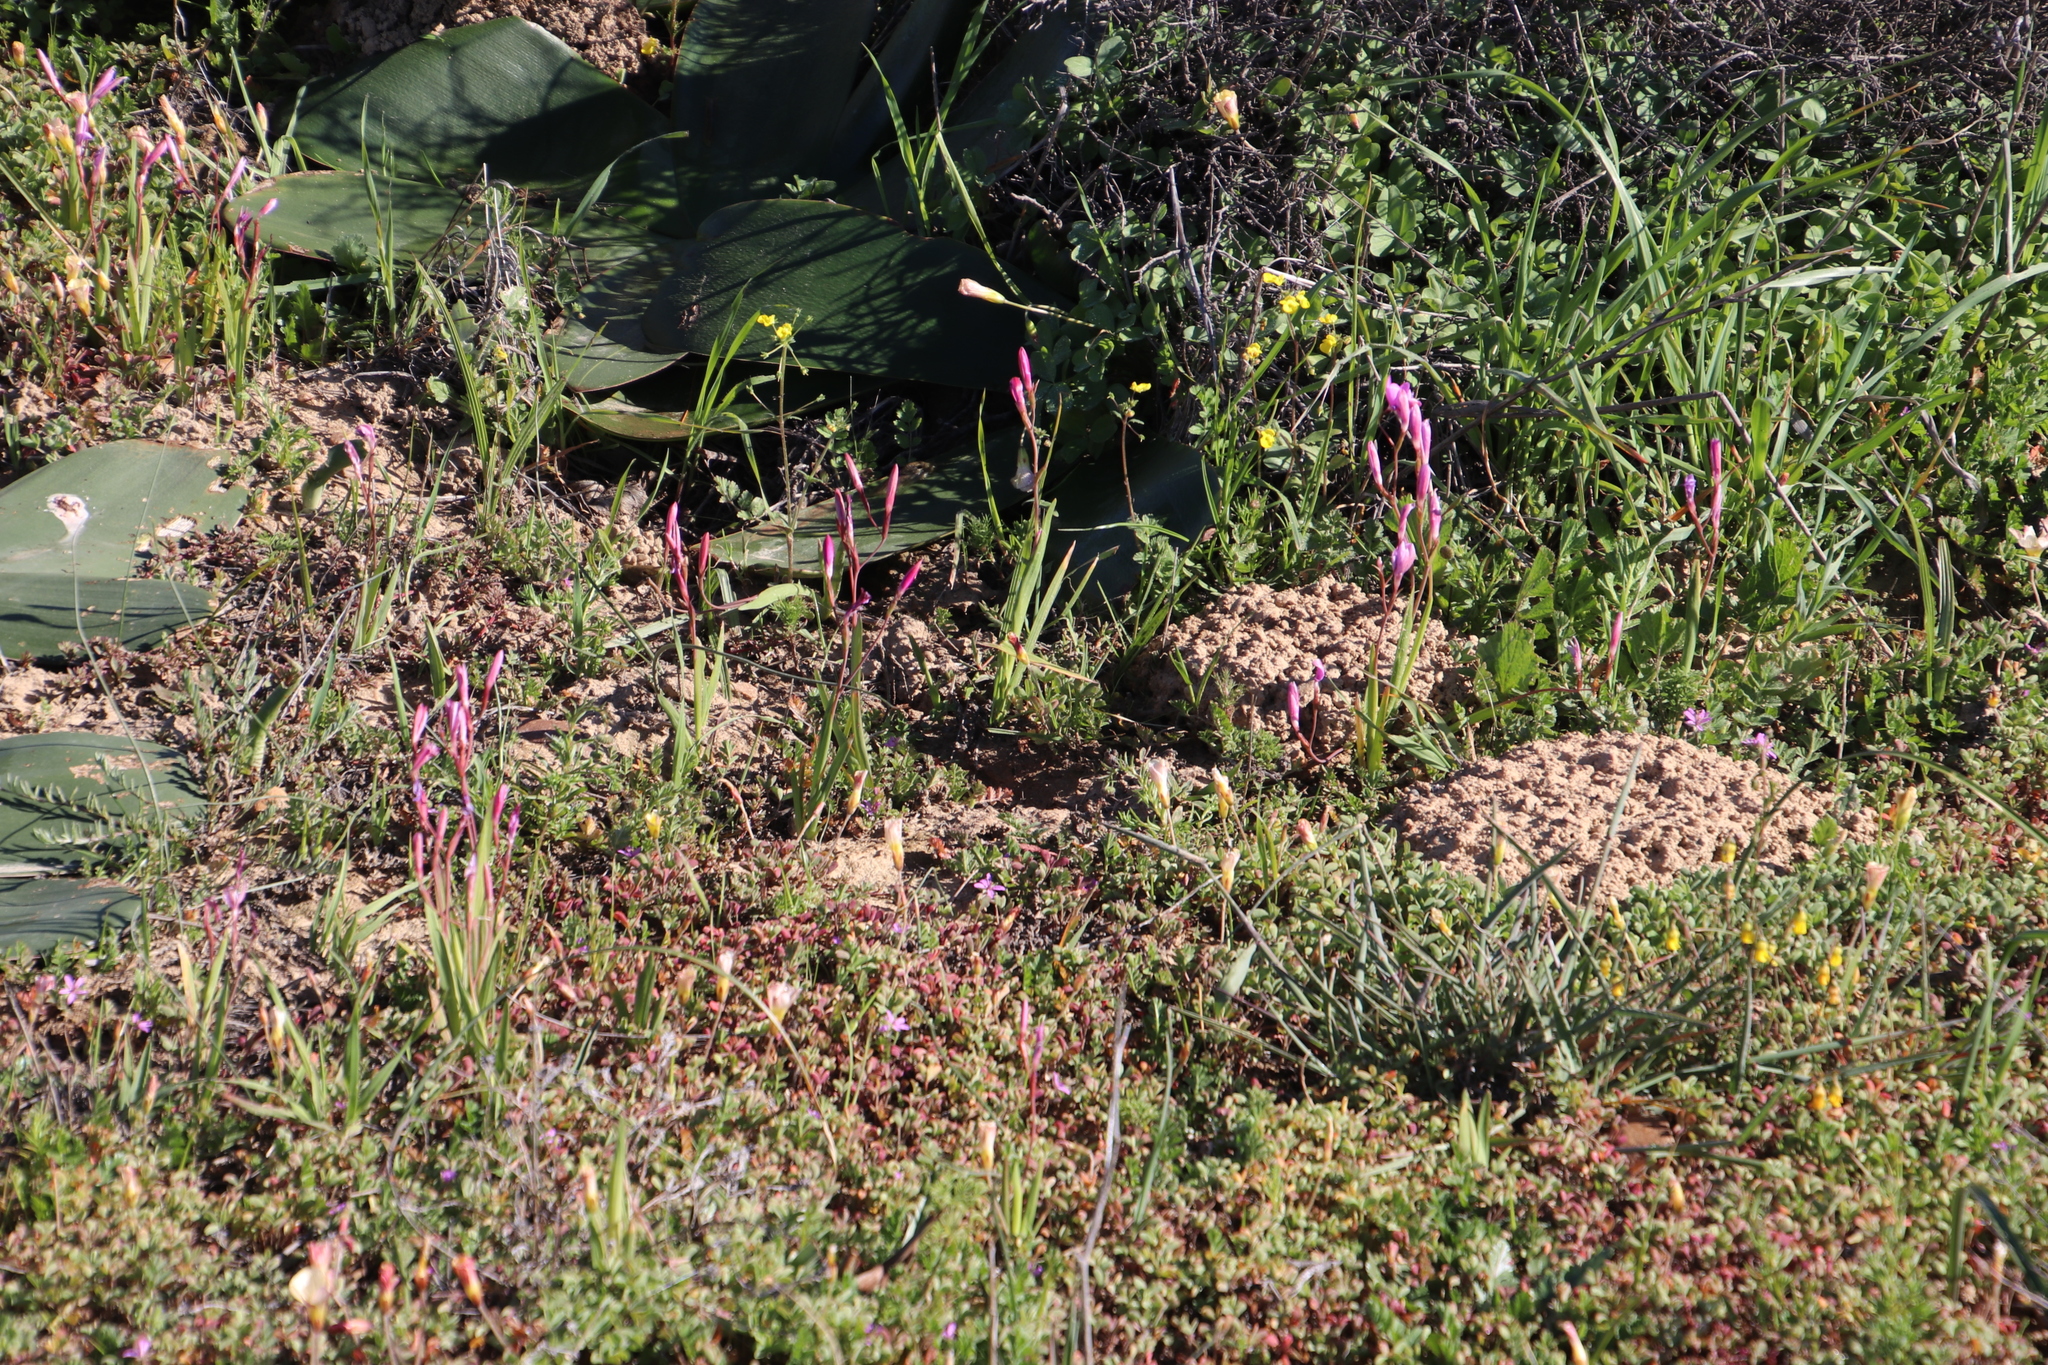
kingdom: Plantae
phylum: Tracheophyta
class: Liliopsida
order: Asparagales
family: Iridaceae
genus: Hesperantha
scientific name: Hesperantha pauciflora
